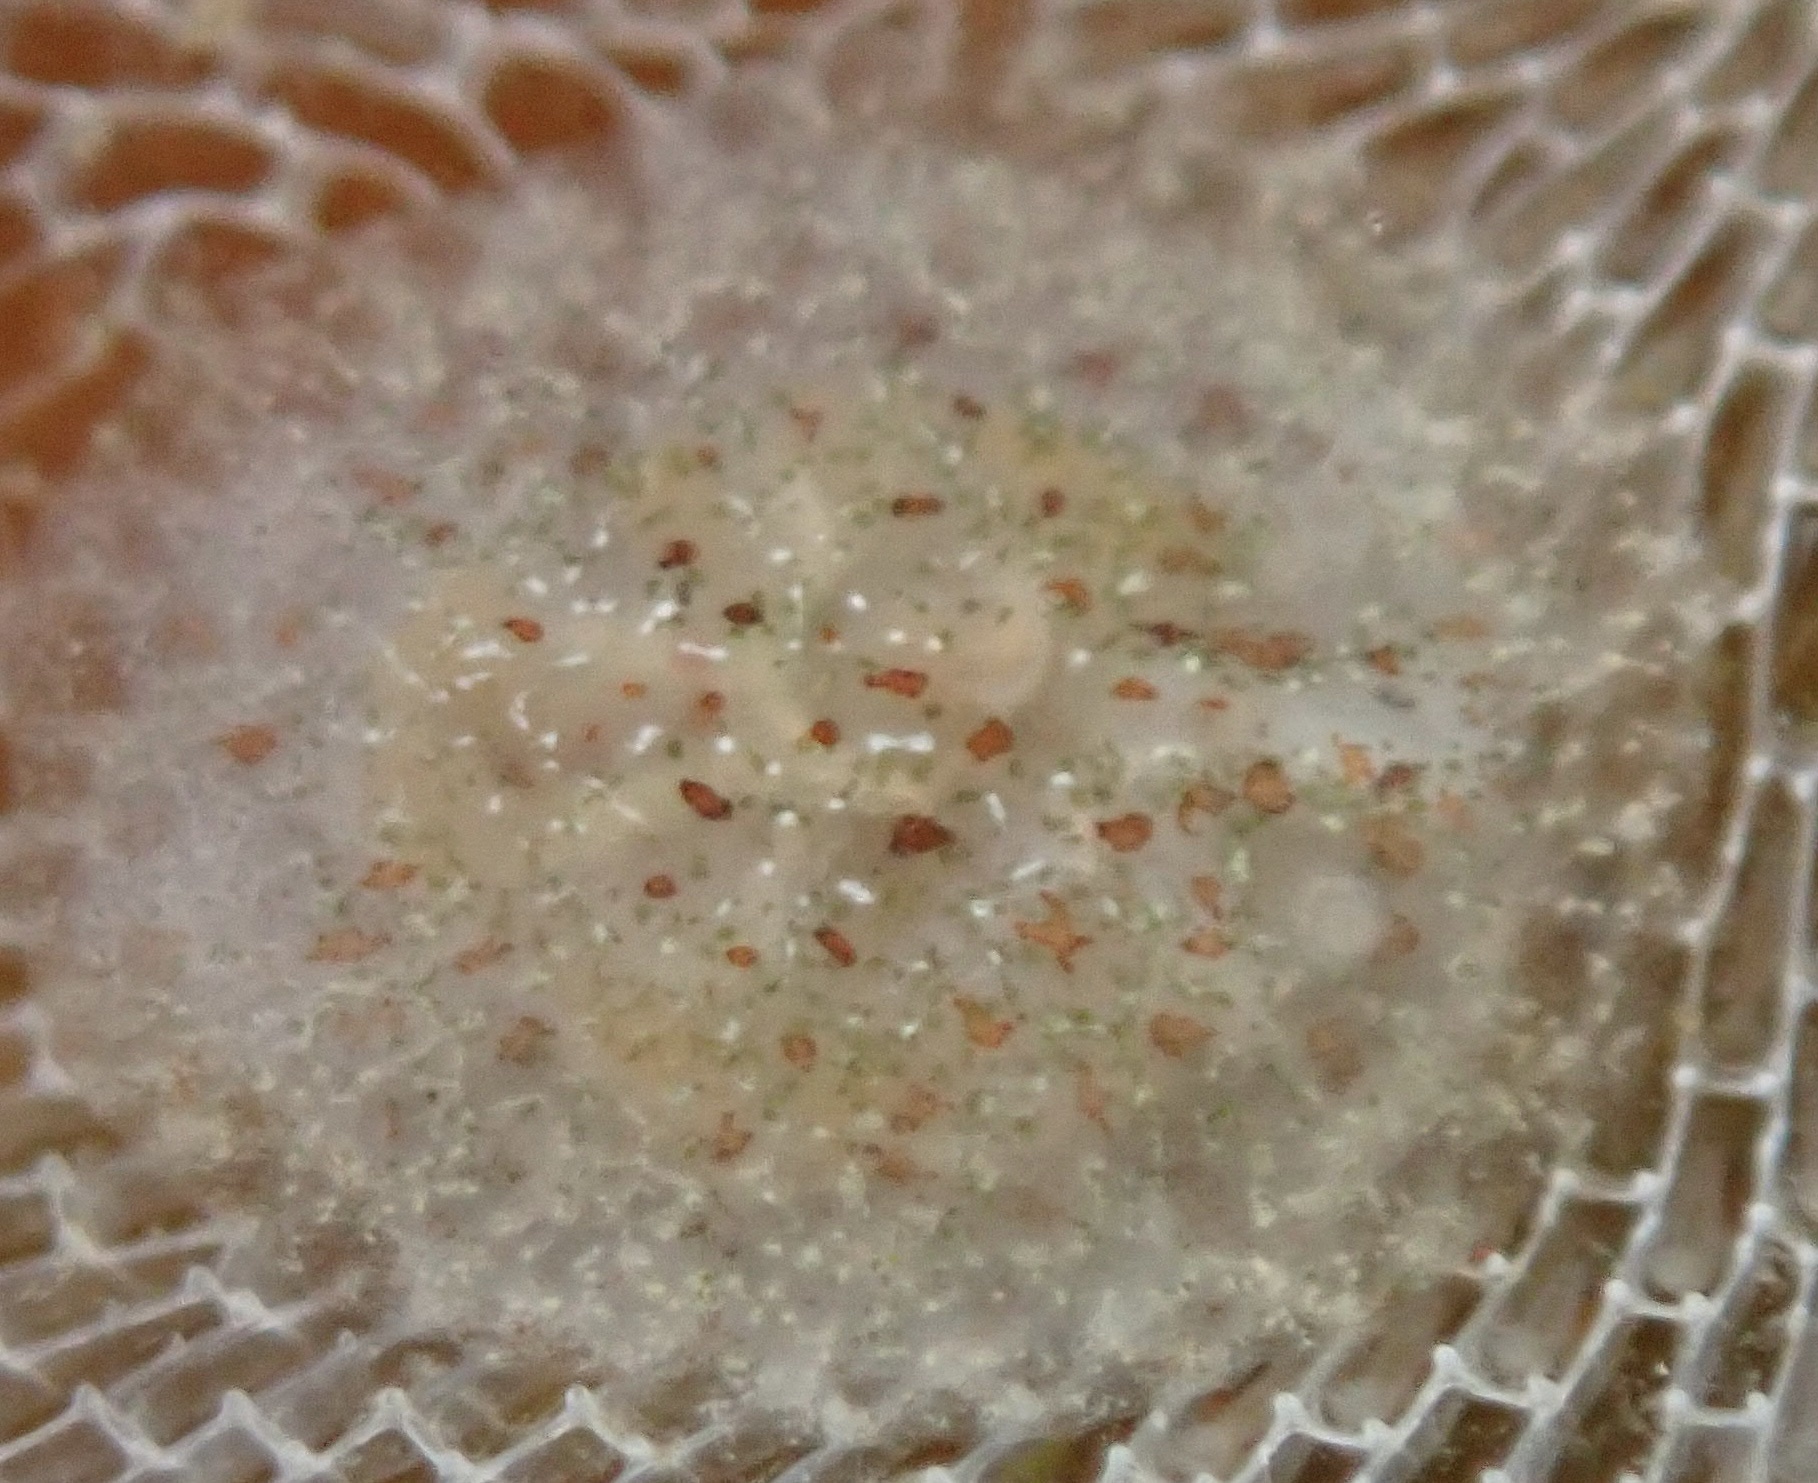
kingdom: Animalia
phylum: Mollusca
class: Gastropoda
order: Nudibranchia
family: Corambidae
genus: Corambe
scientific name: Corambe steinbergae
